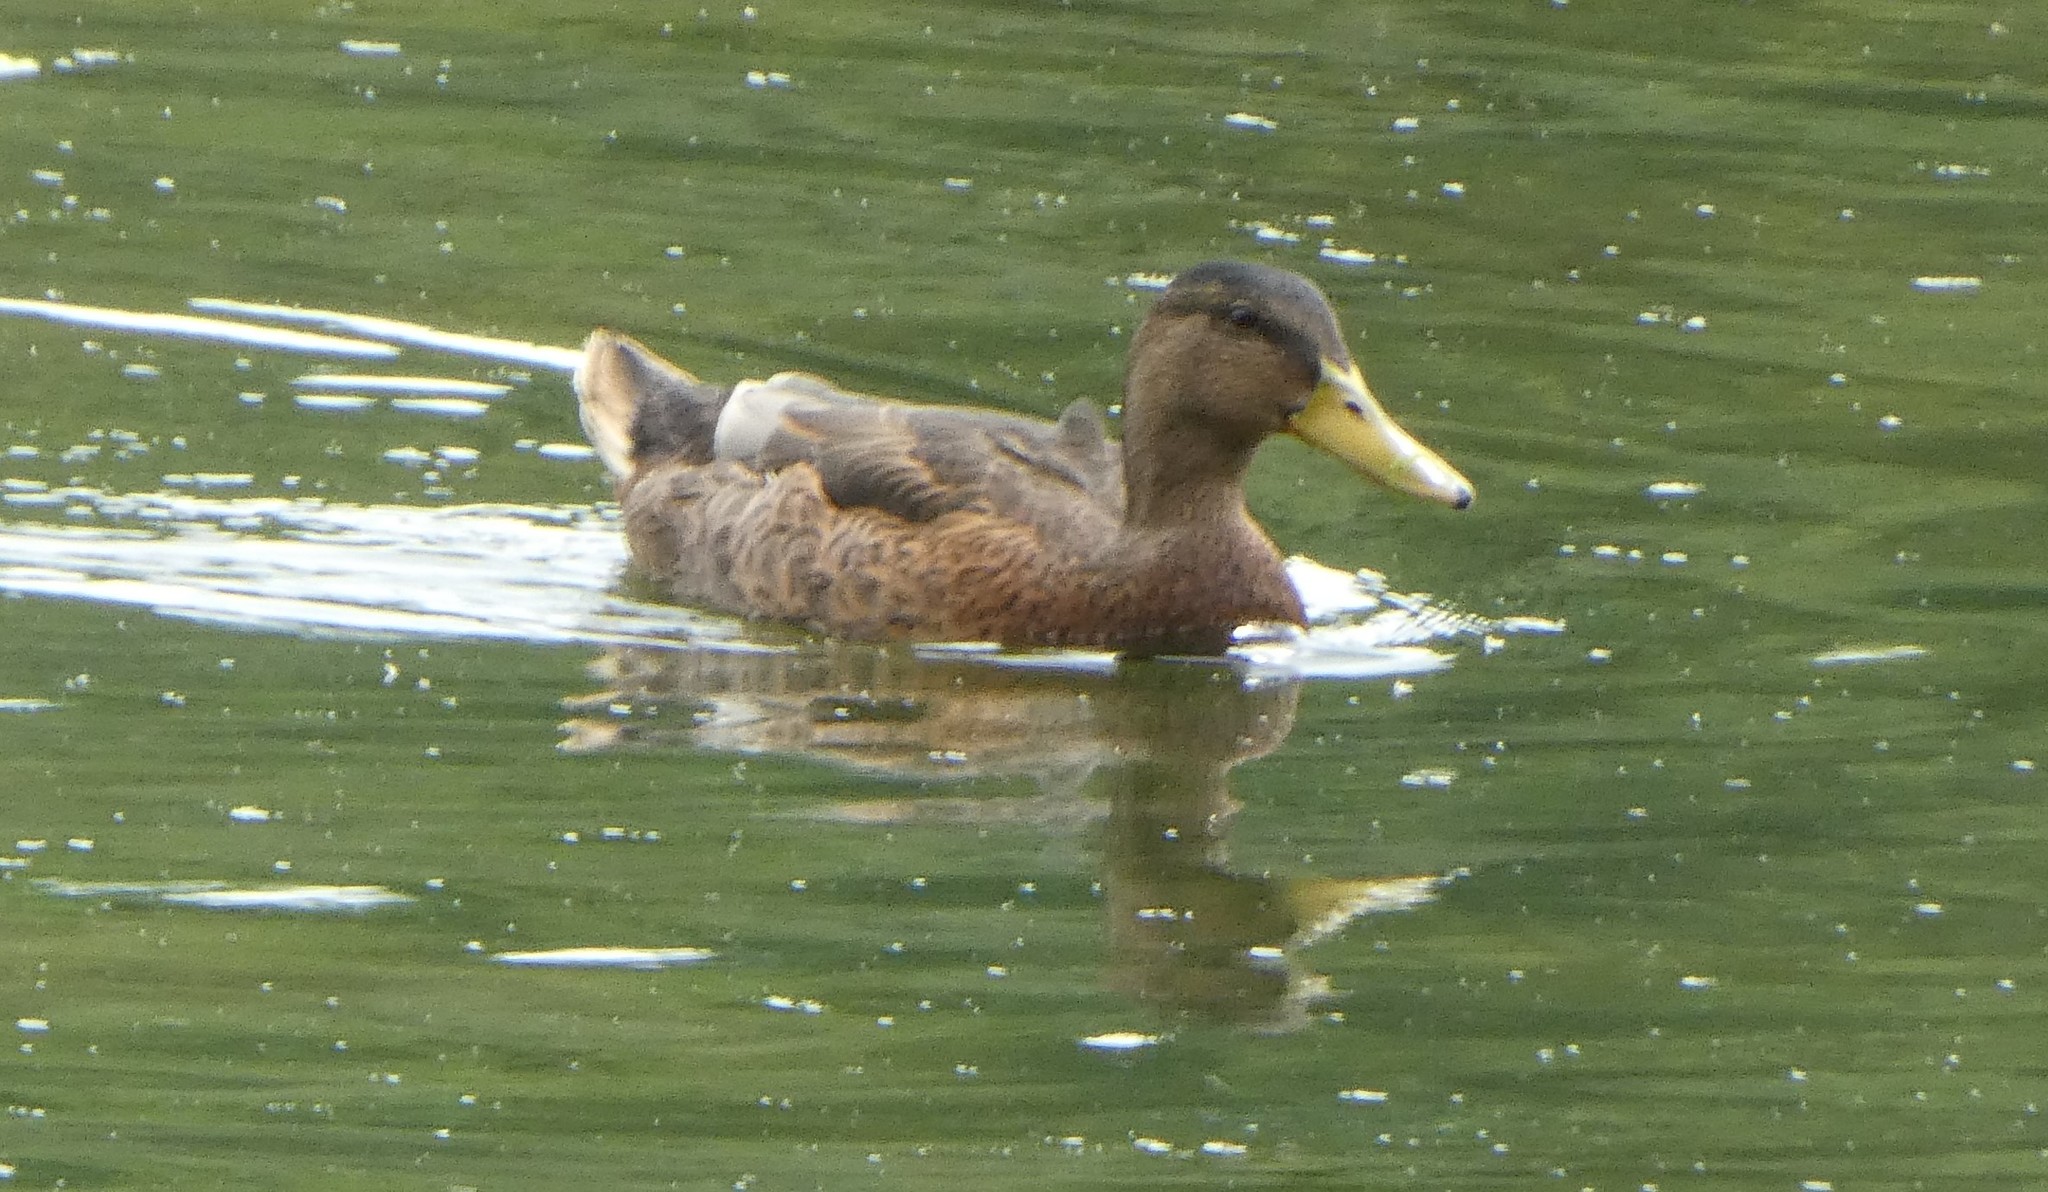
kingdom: Animalia
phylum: Chordata
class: Aves
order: Anseriformes
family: Anatidae
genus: Anas
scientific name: Anas platyrhynchos
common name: Mallard
